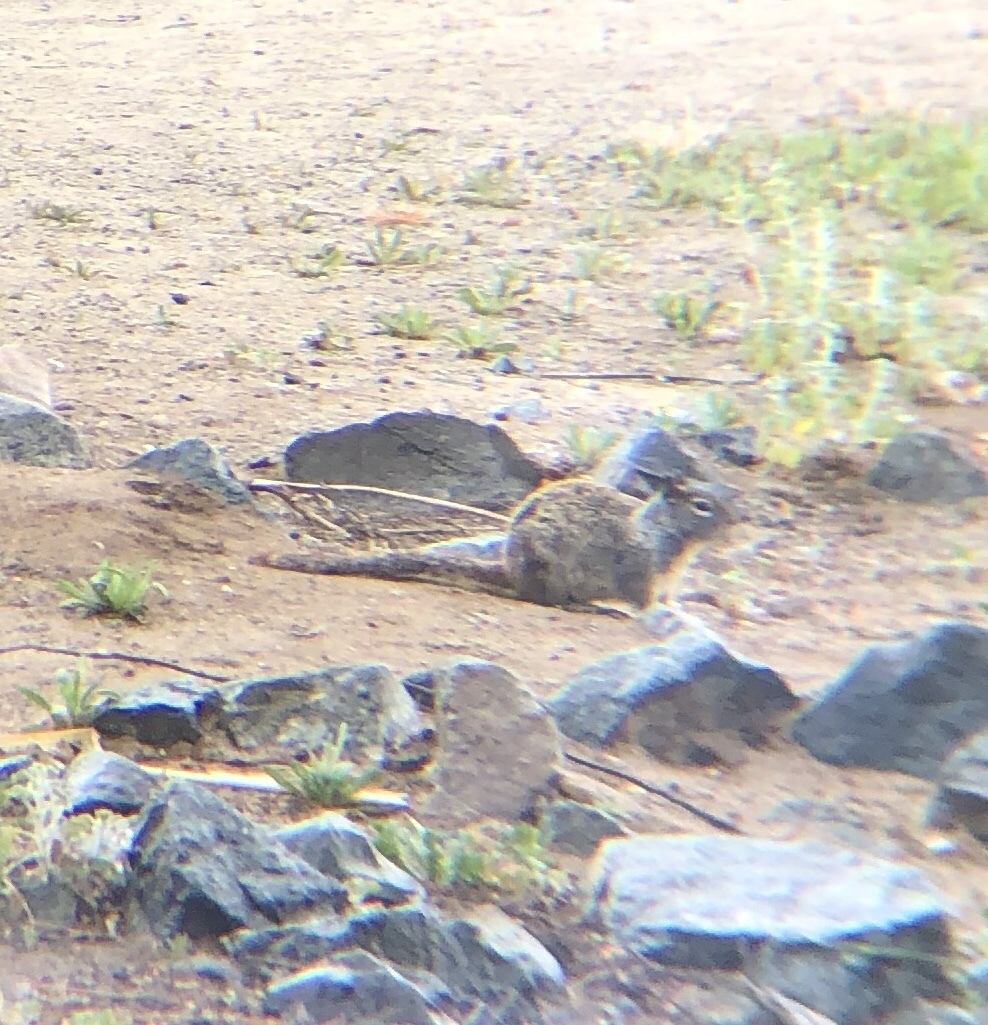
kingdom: Animalia
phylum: Chordata
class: Mammalia
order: Rodentia
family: Sciuridae
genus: Otospermophilus
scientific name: Otospermophilus beecheyi
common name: California ground squirrel
